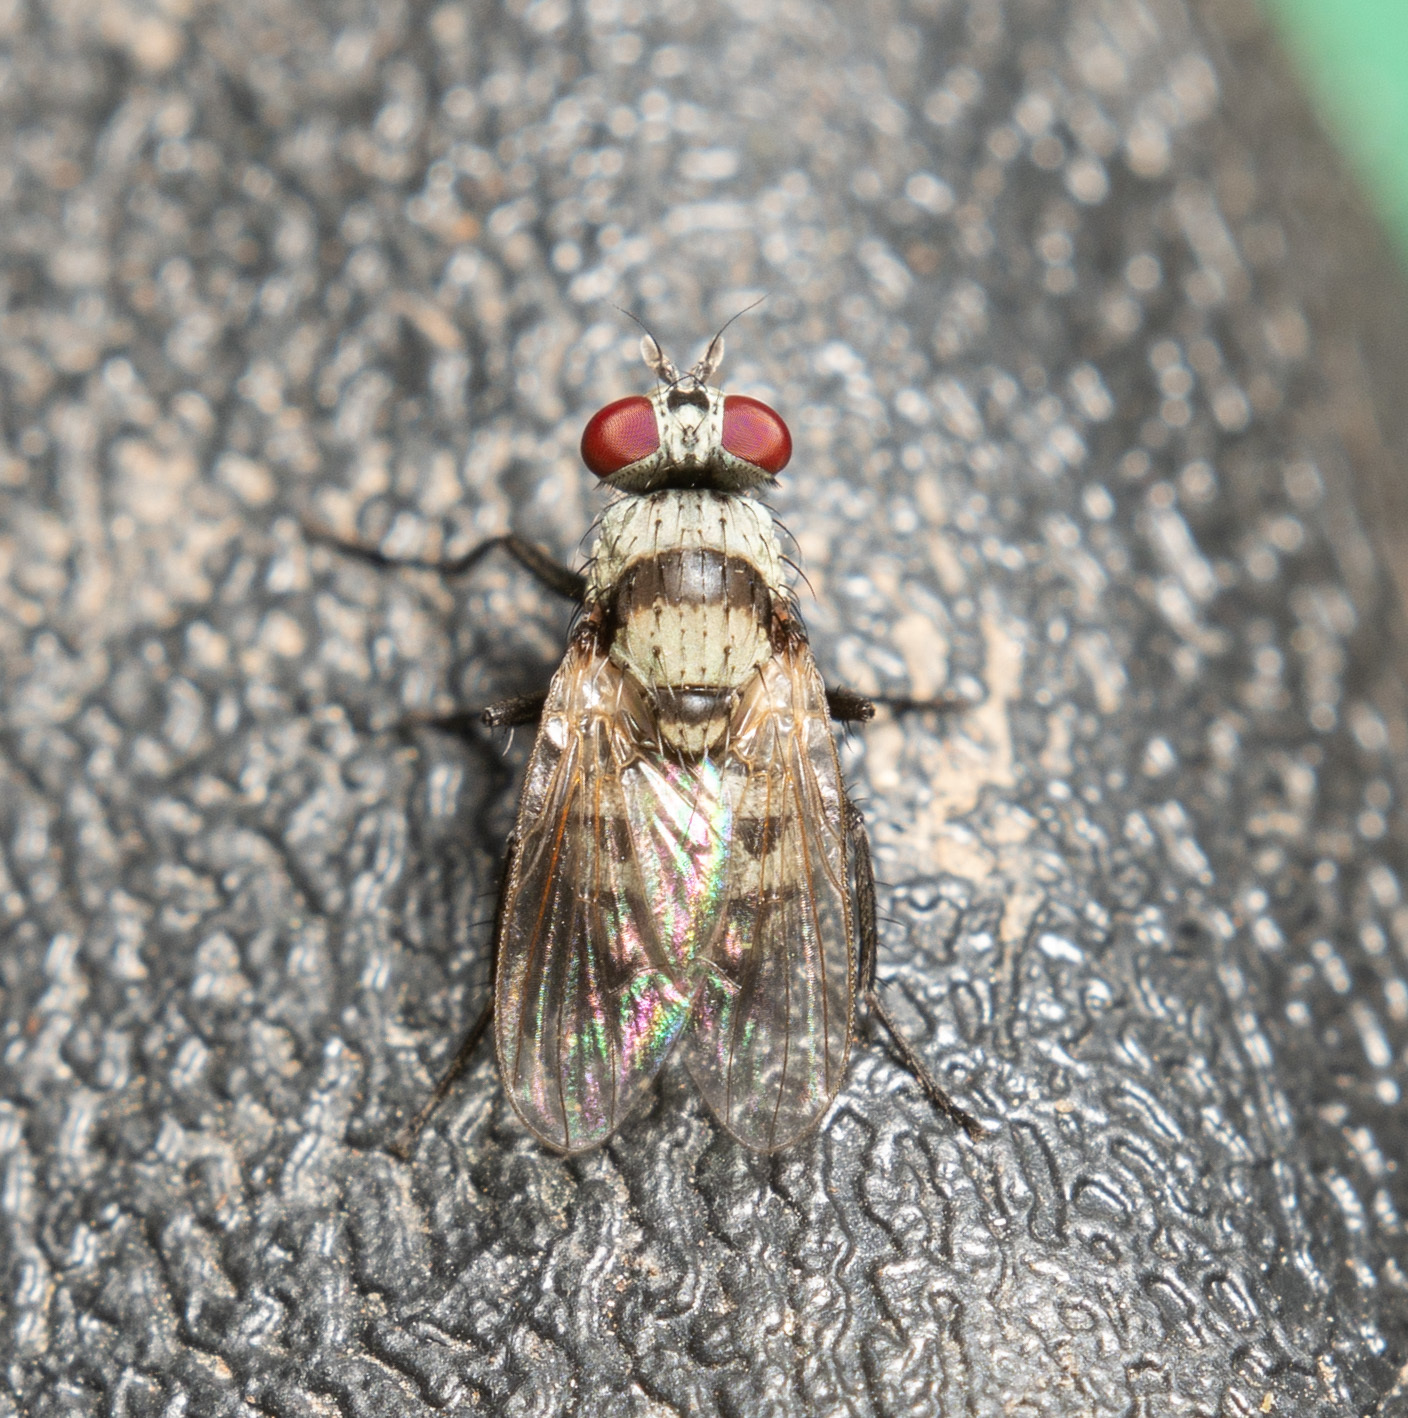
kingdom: Animalia
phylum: Arthropoda
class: Insecta
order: Diptera
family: Anthomyiidae
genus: Anthomyia
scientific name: Anthomyia illocata
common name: Fly
